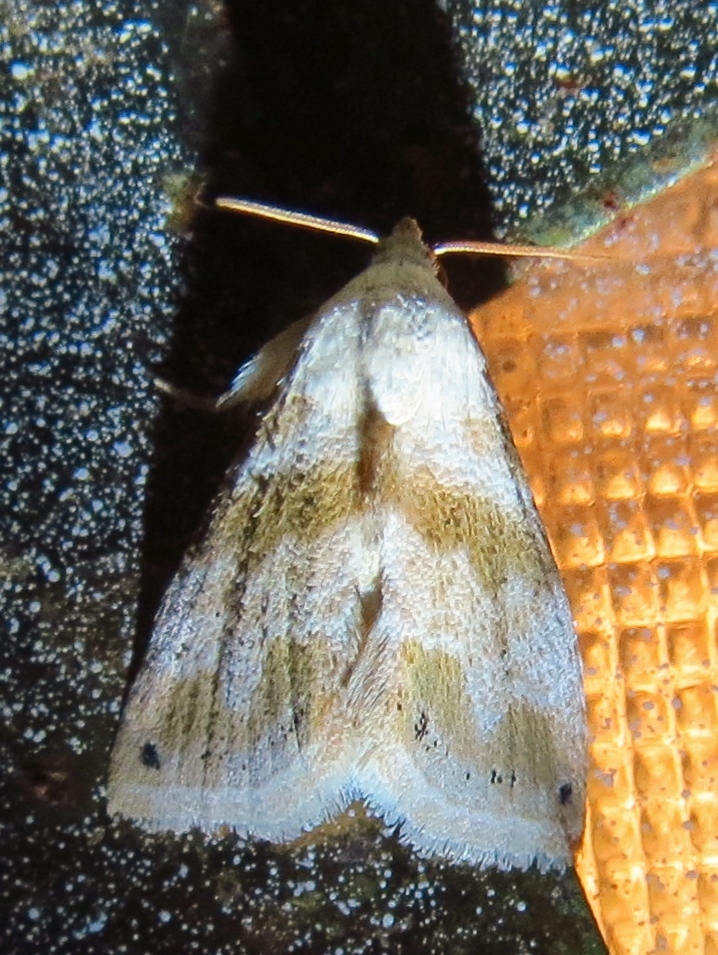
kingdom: Animalia
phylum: Arthropoda
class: Insecta
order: Lepidoptera
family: Noctuidae
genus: Eublemma
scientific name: Eublemma minima
